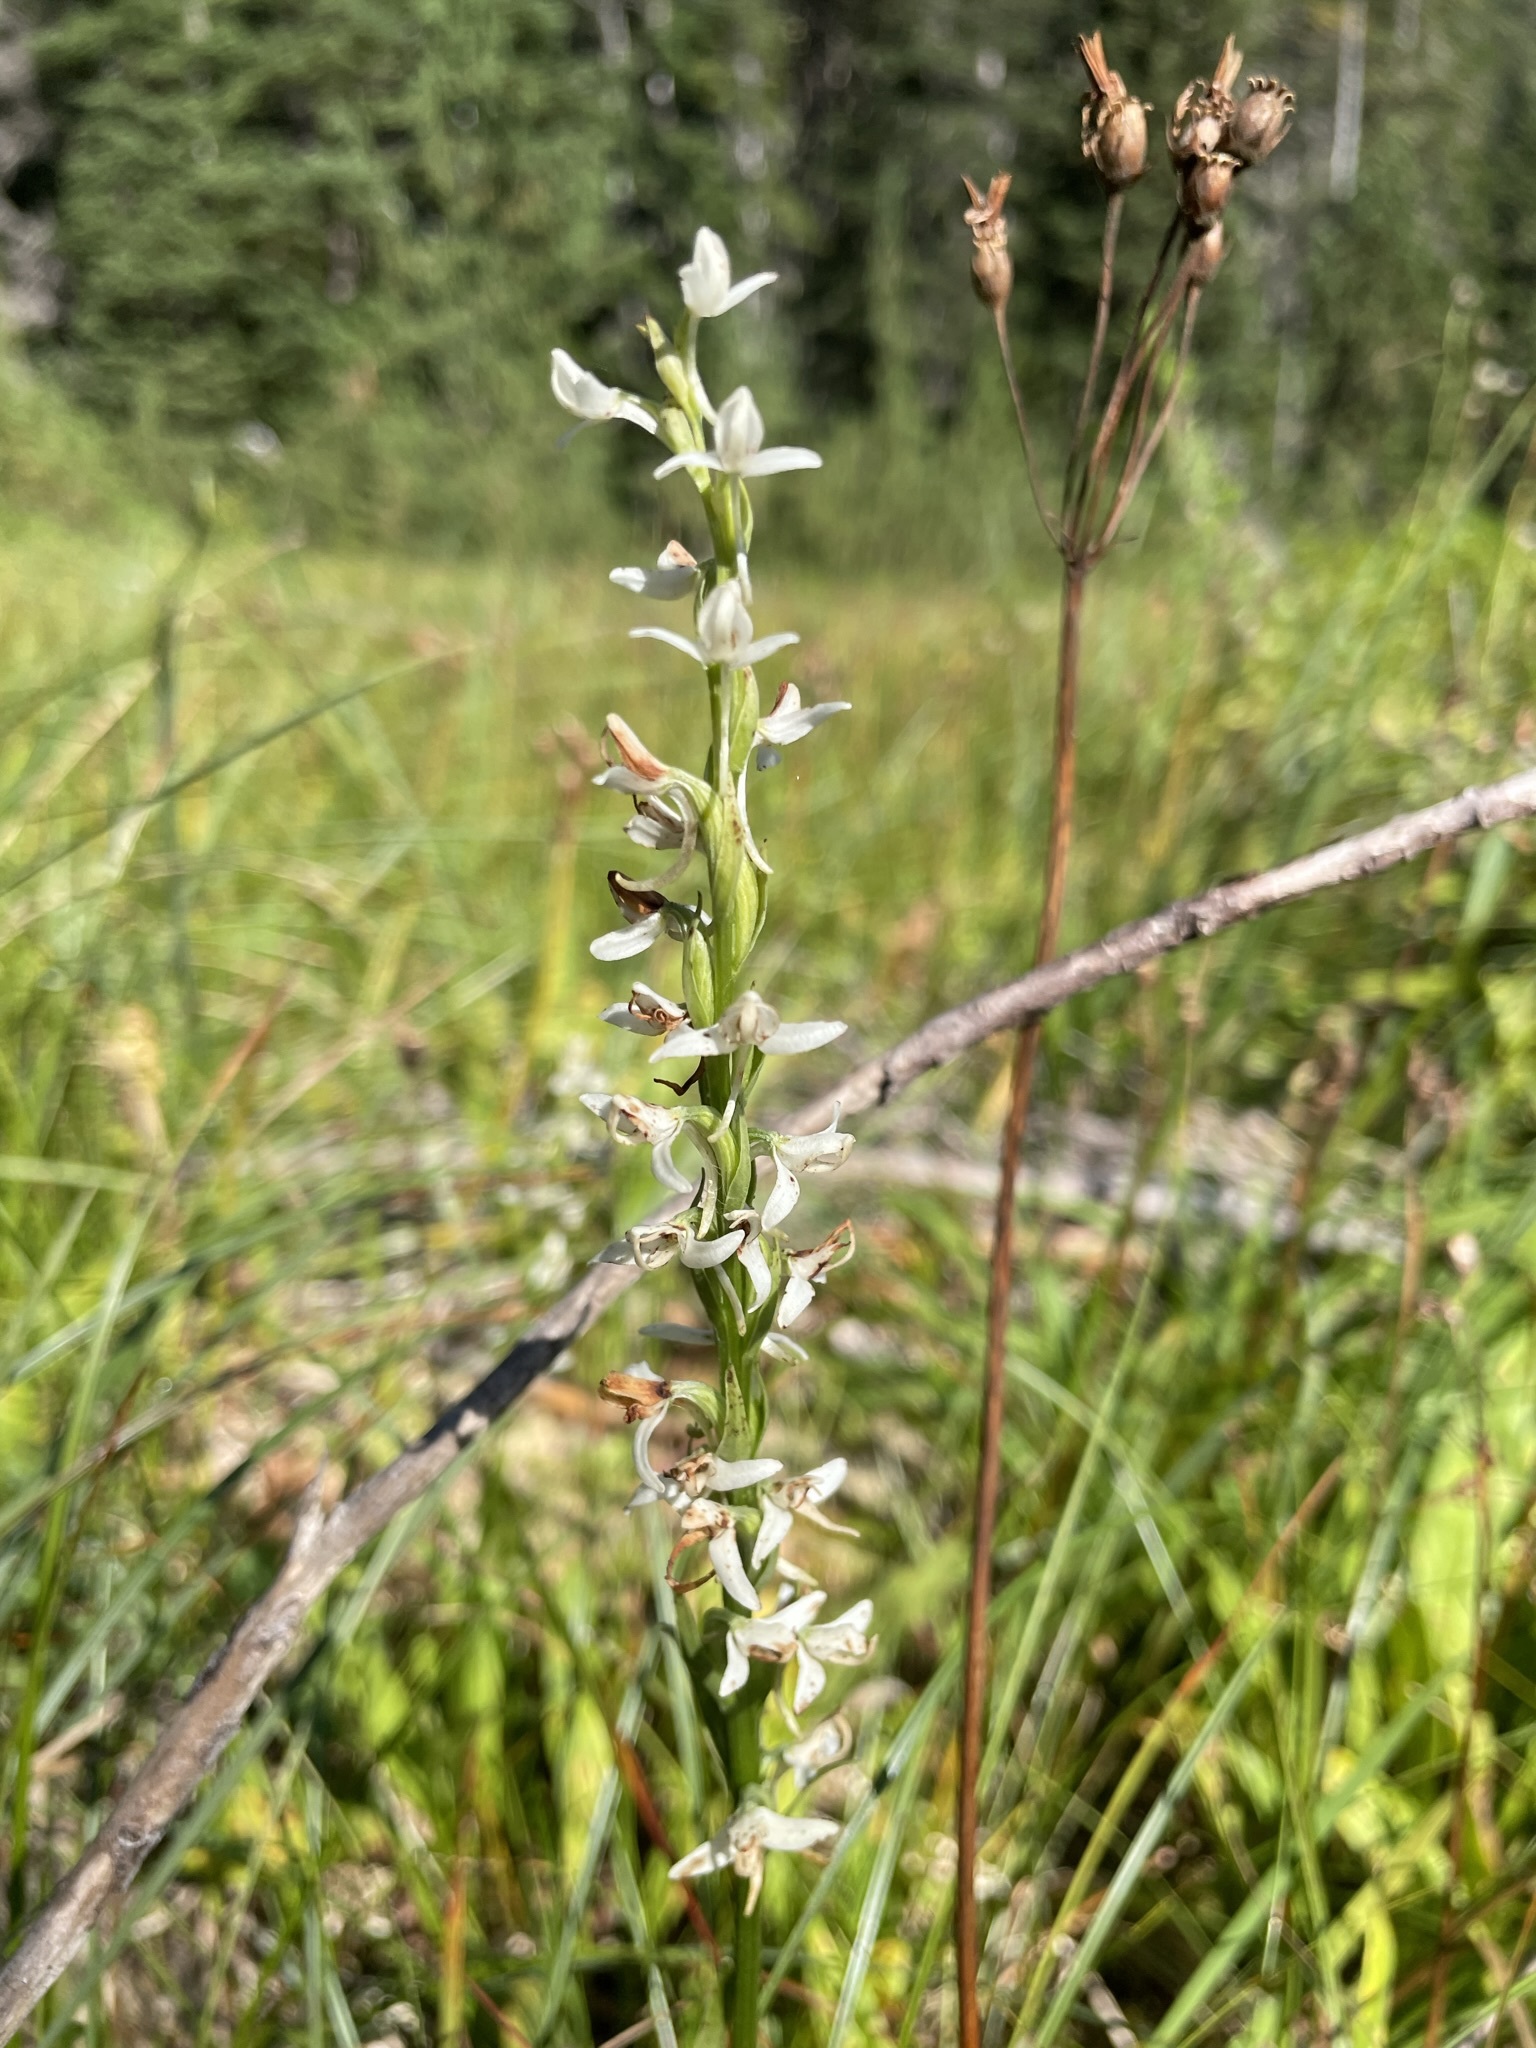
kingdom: Plantae
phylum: Tracheophyta
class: Liliopsida
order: Asparagales
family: Orchidaceae
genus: Platanthera
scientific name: Platanthera dilatata
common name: Bog candles
